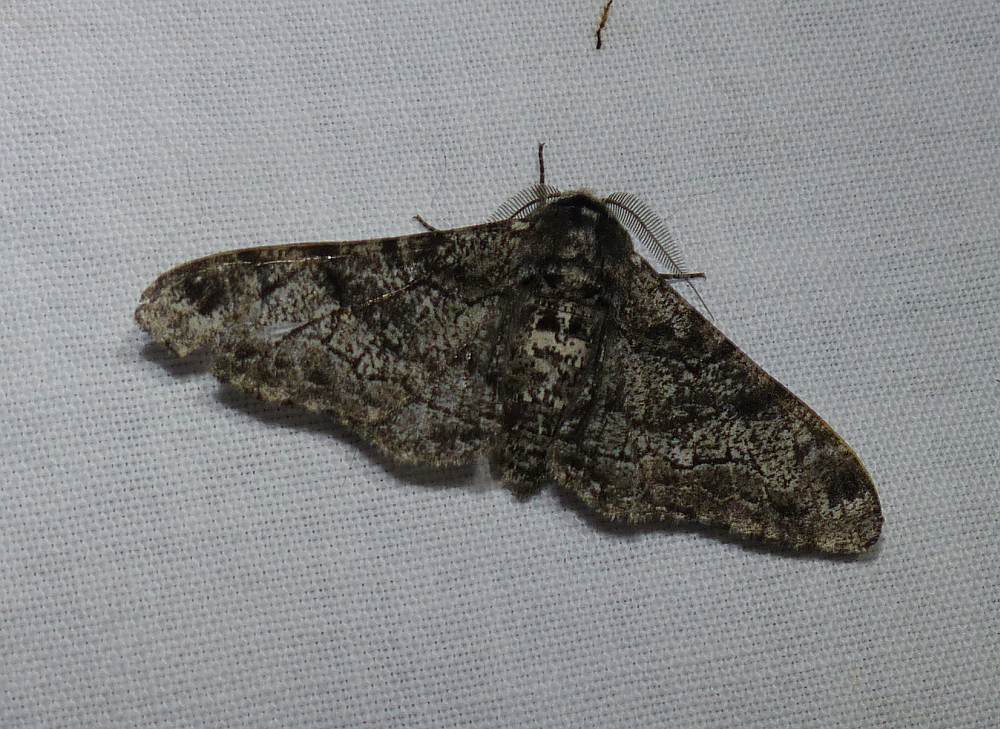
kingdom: Animalia
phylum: Arthropoda
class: Insecta
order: Lepidoptera
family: Geometridae
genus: Biston
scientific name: Biston betularia
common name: Peppered moth
